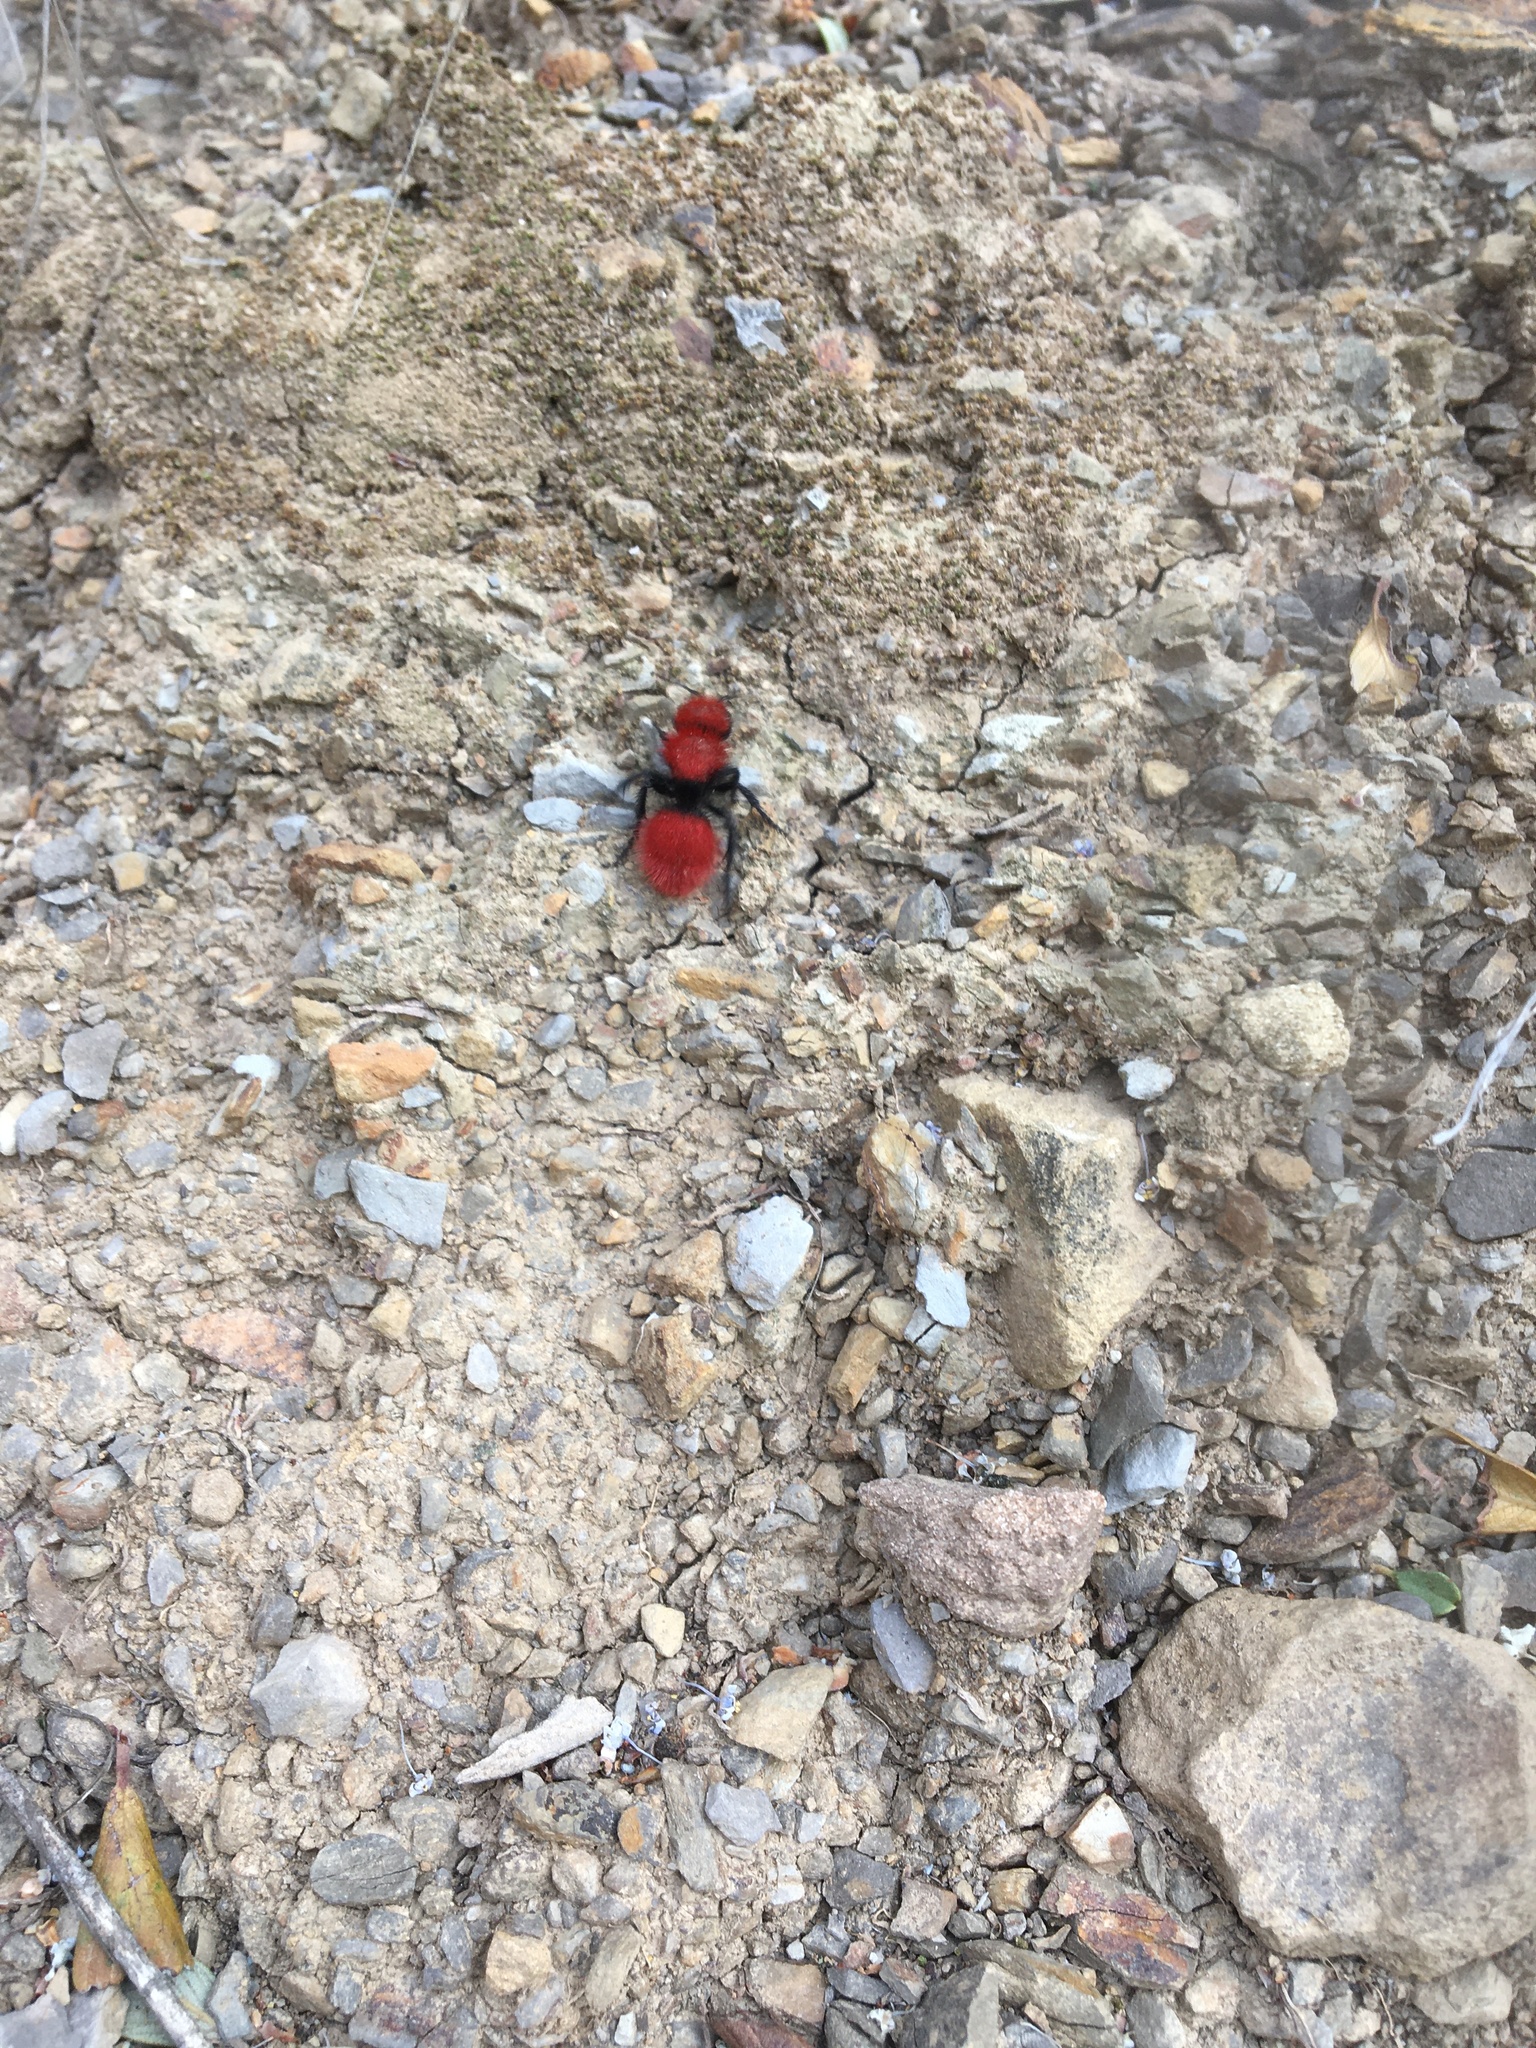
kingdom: Animalia
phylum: Arthropoda
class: Insecta
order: Hymenoptera
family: Mutillidae
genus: Dasymutilla
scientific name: Dasymutilla
